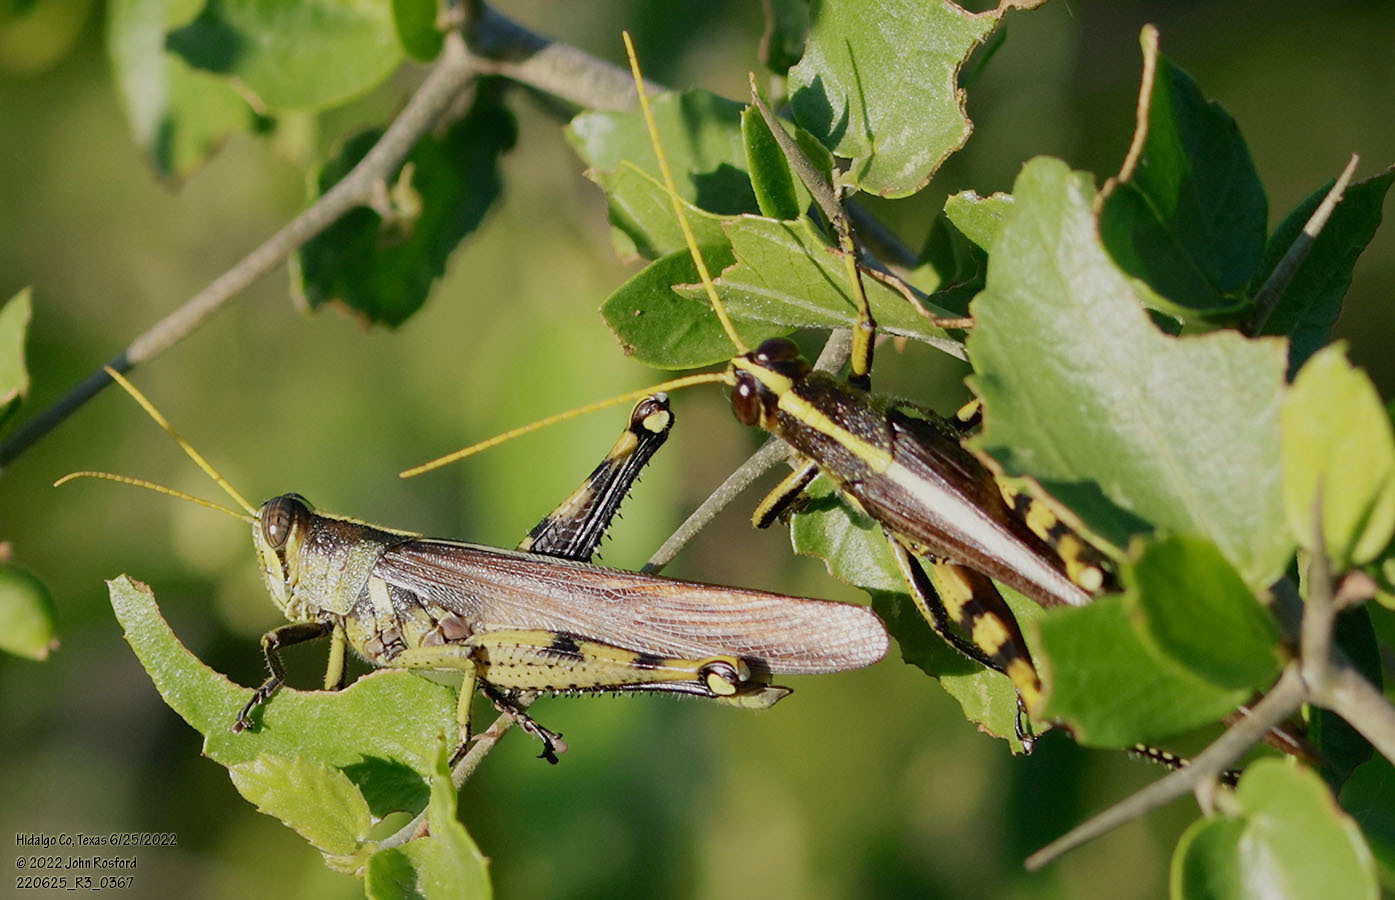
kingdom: Animalia
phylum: Arthropoda
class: Insecta
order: Orthoptera
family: Acrididae
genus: Schistocerca
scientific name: Schistocerca obscura
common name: Obscure bird grasshopper
